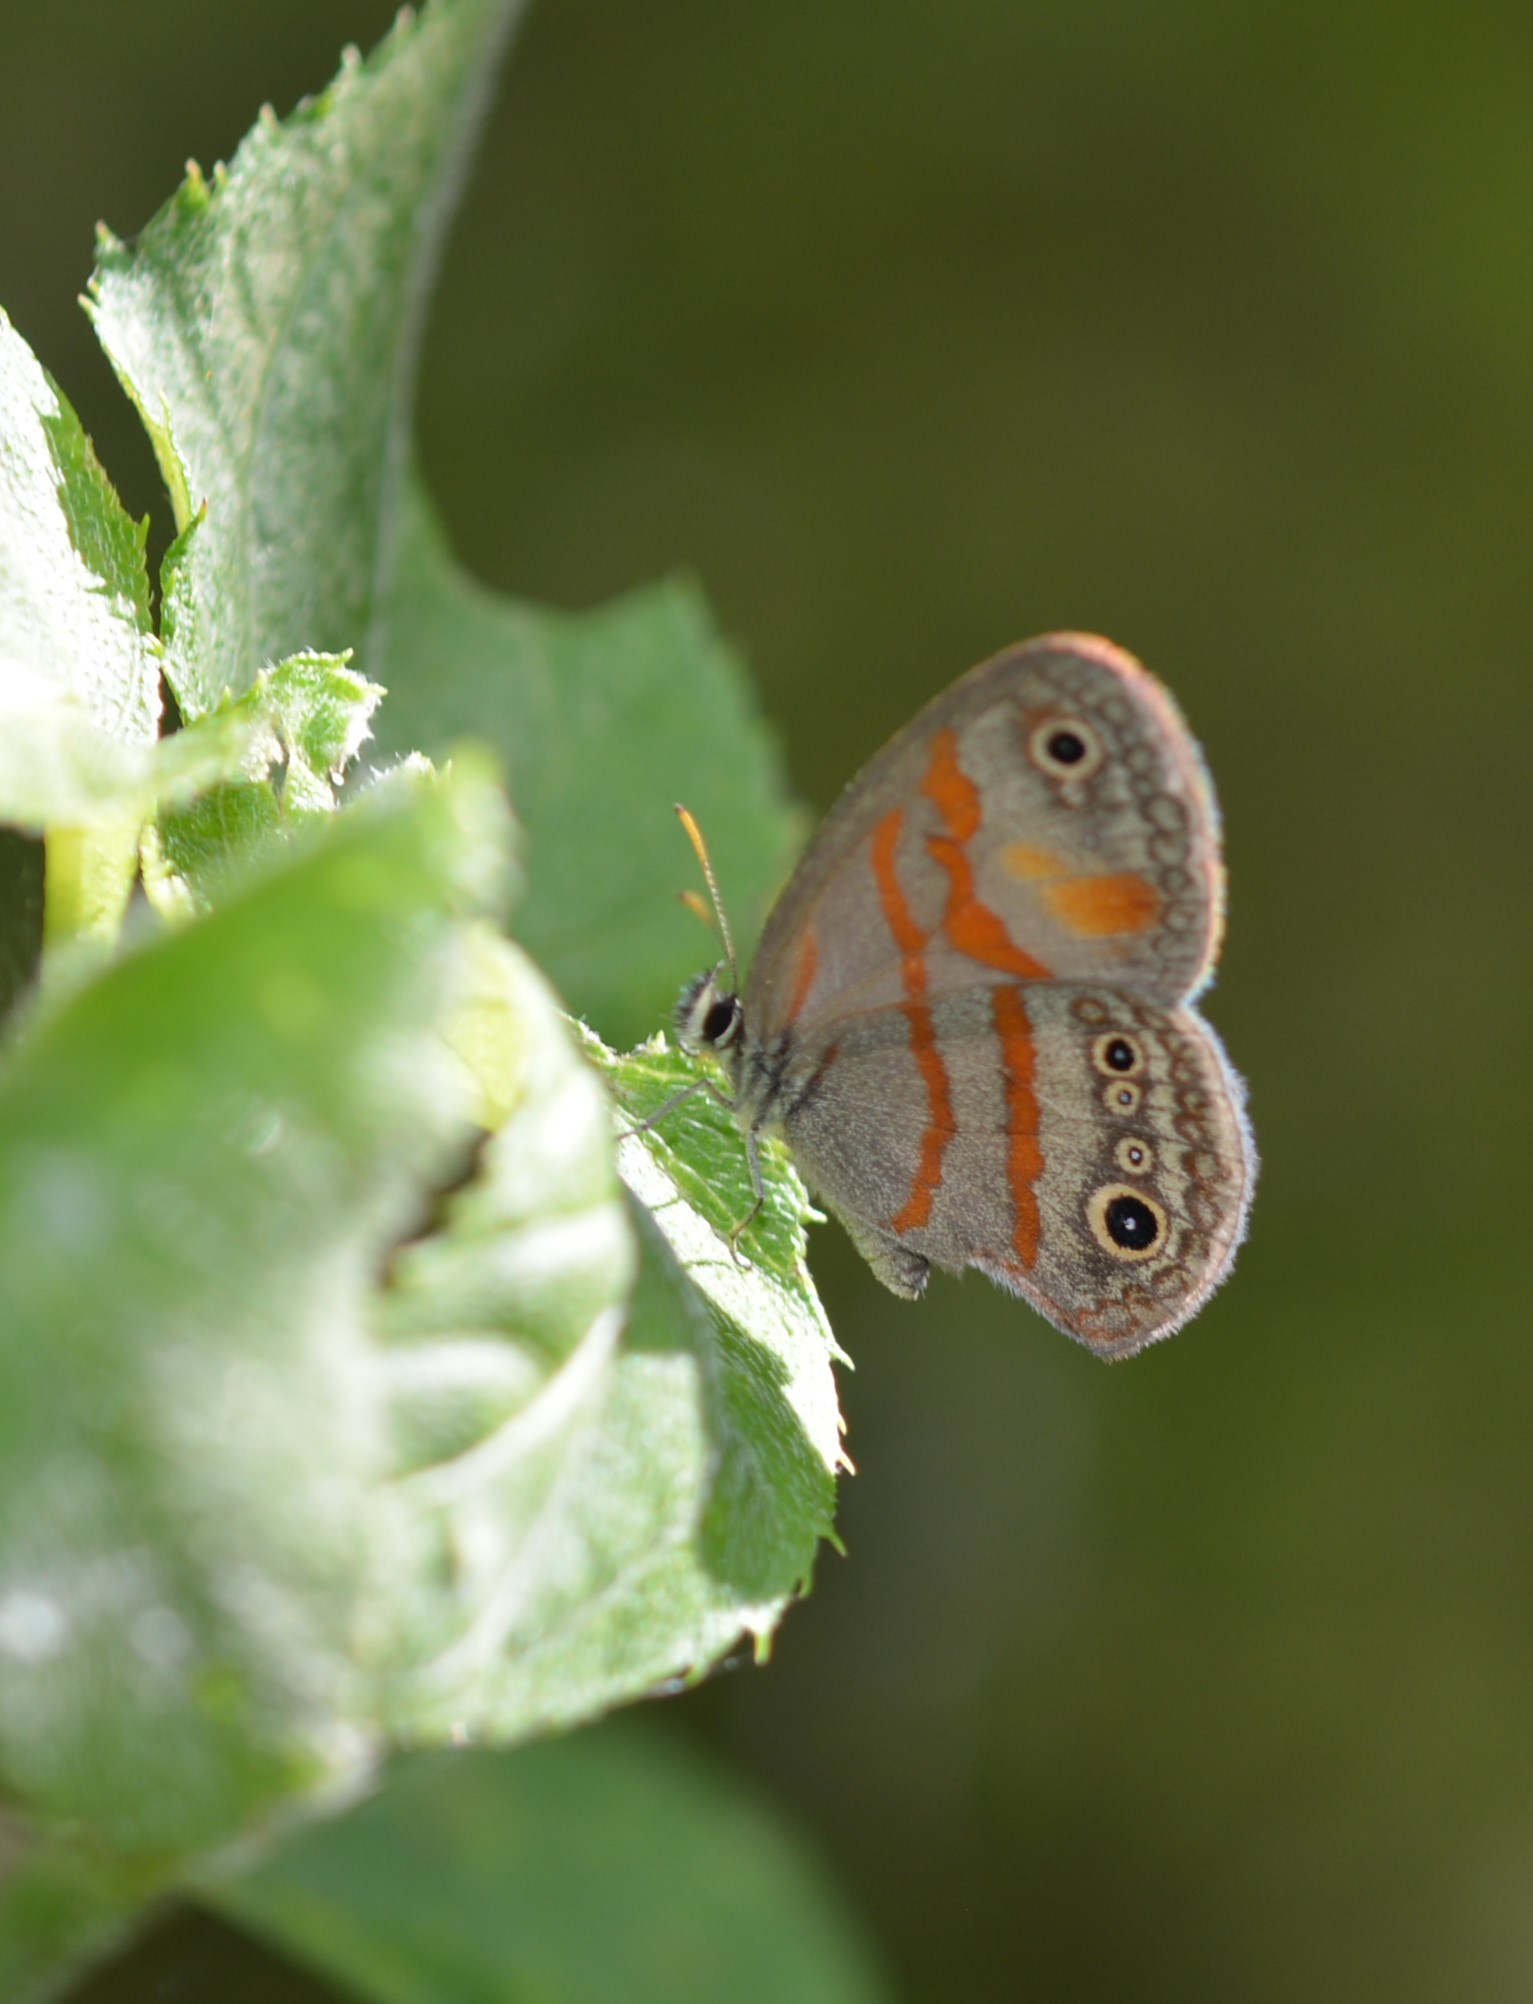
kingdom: Animalia
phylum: Arthropoda
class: Insecta
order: Lepidoptera
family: Nymphalidae
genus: Euptychia
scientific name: Euptychia fetna
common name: Orange-patched satyr
